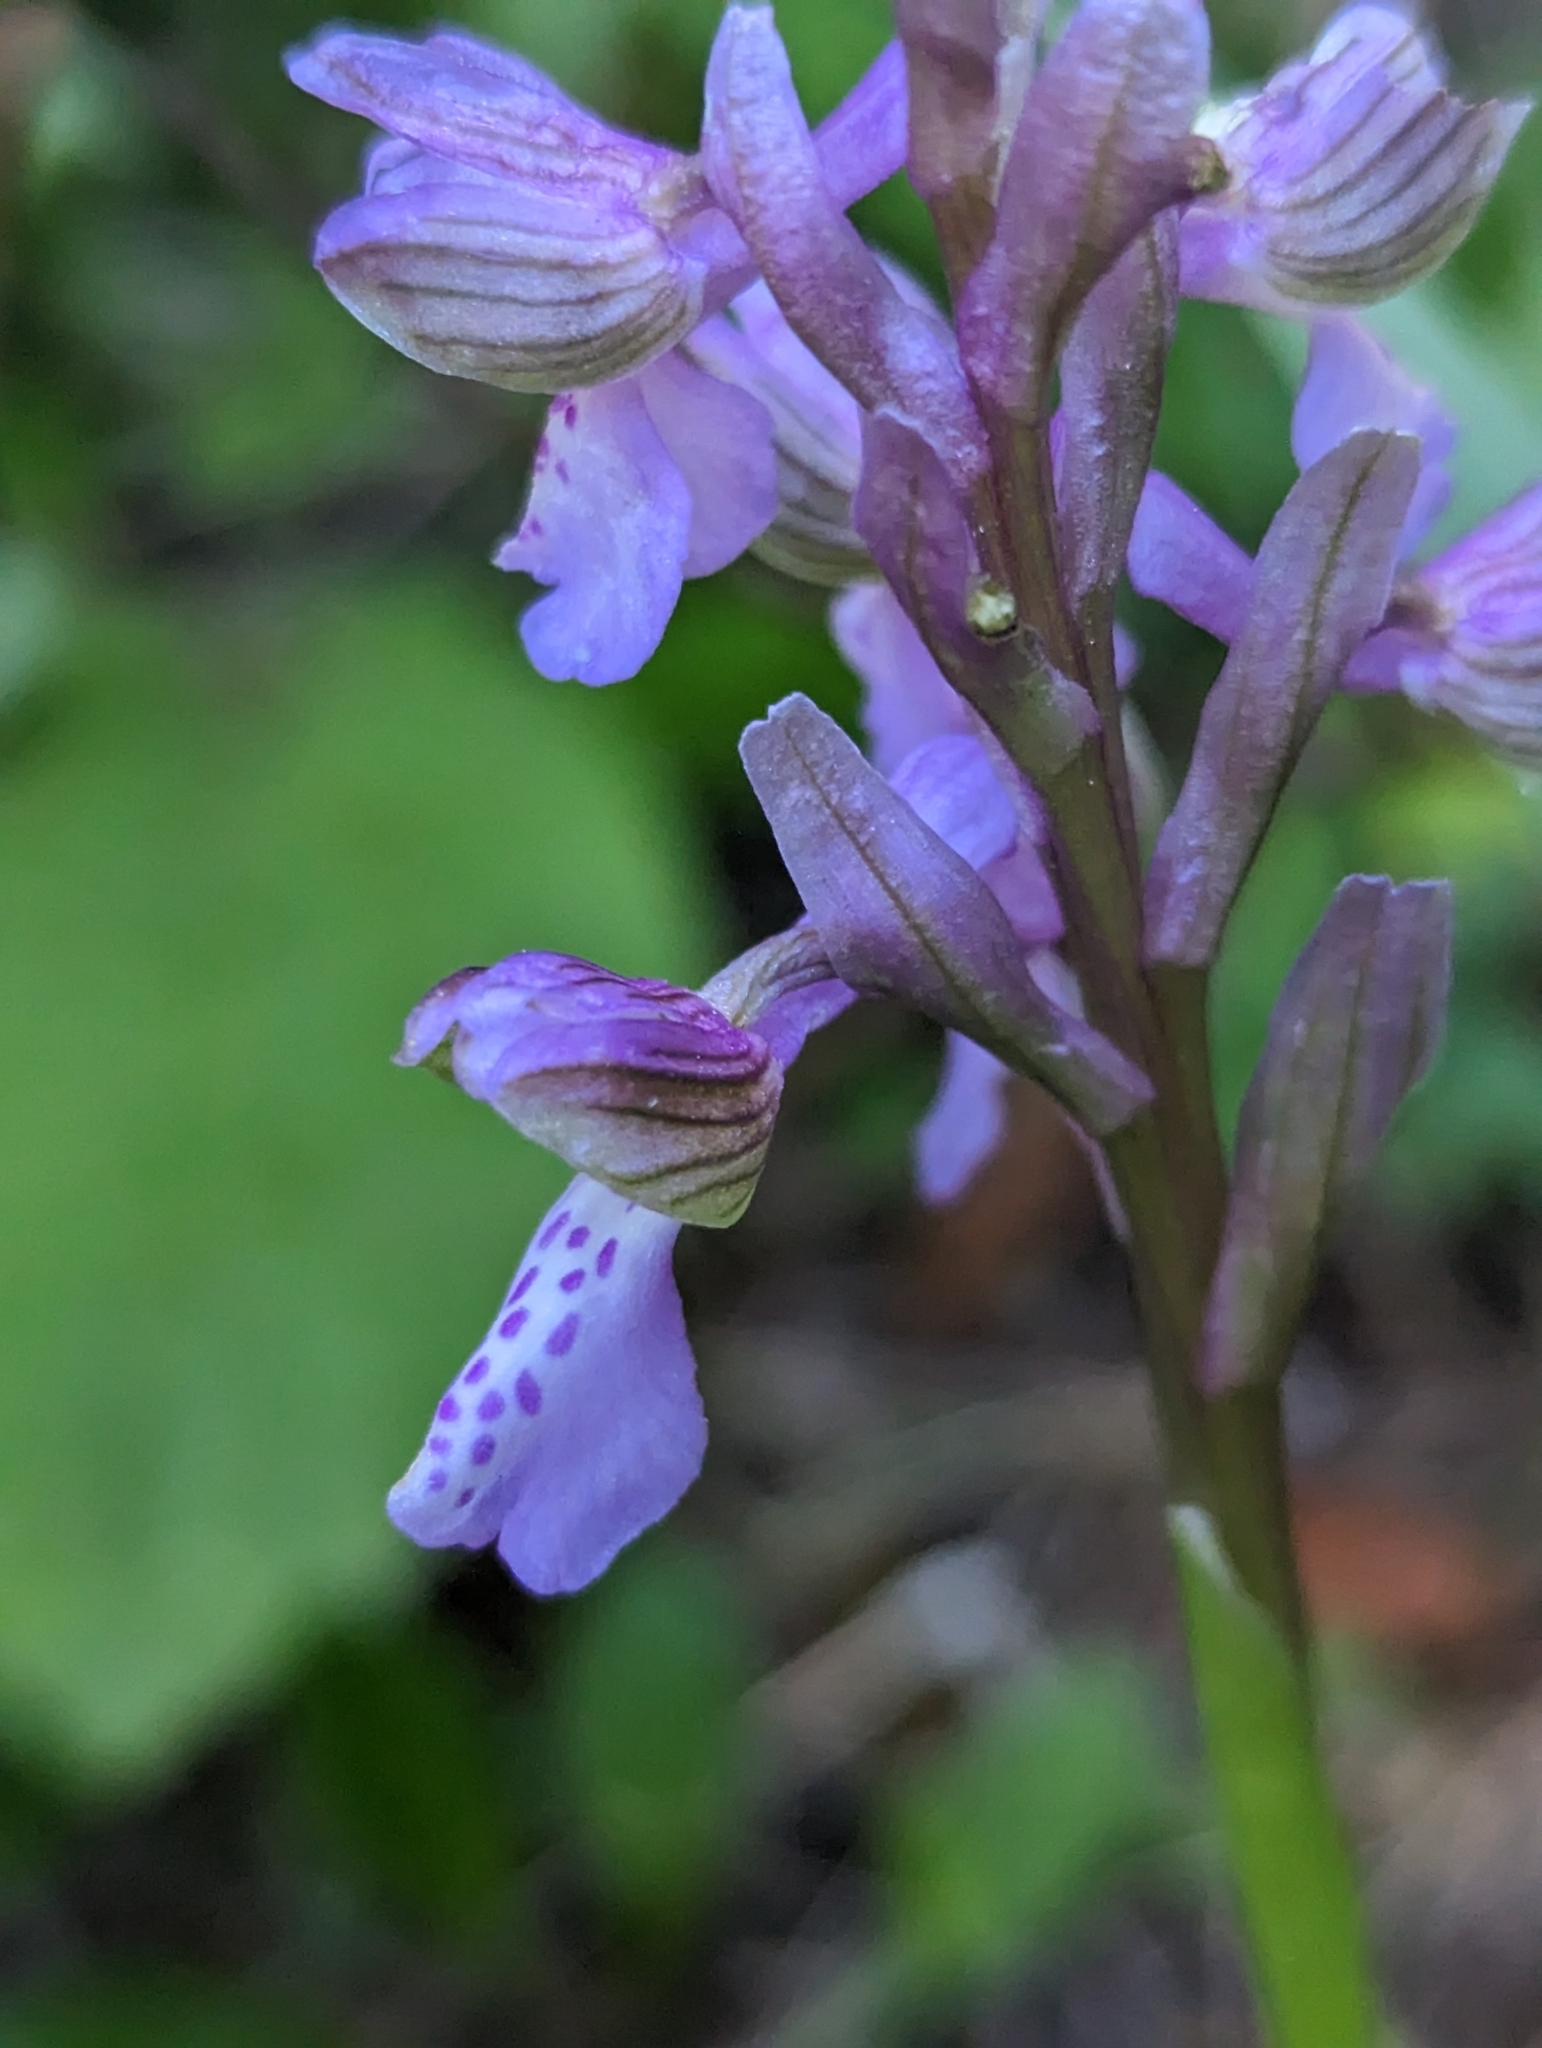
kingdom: Plantae
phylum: Tracheophyta
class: Liliopsida
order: Asparagales
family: Orchidaceae
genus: Anacamptis
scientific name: Anacamptis morio
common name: Green-winged orchid
